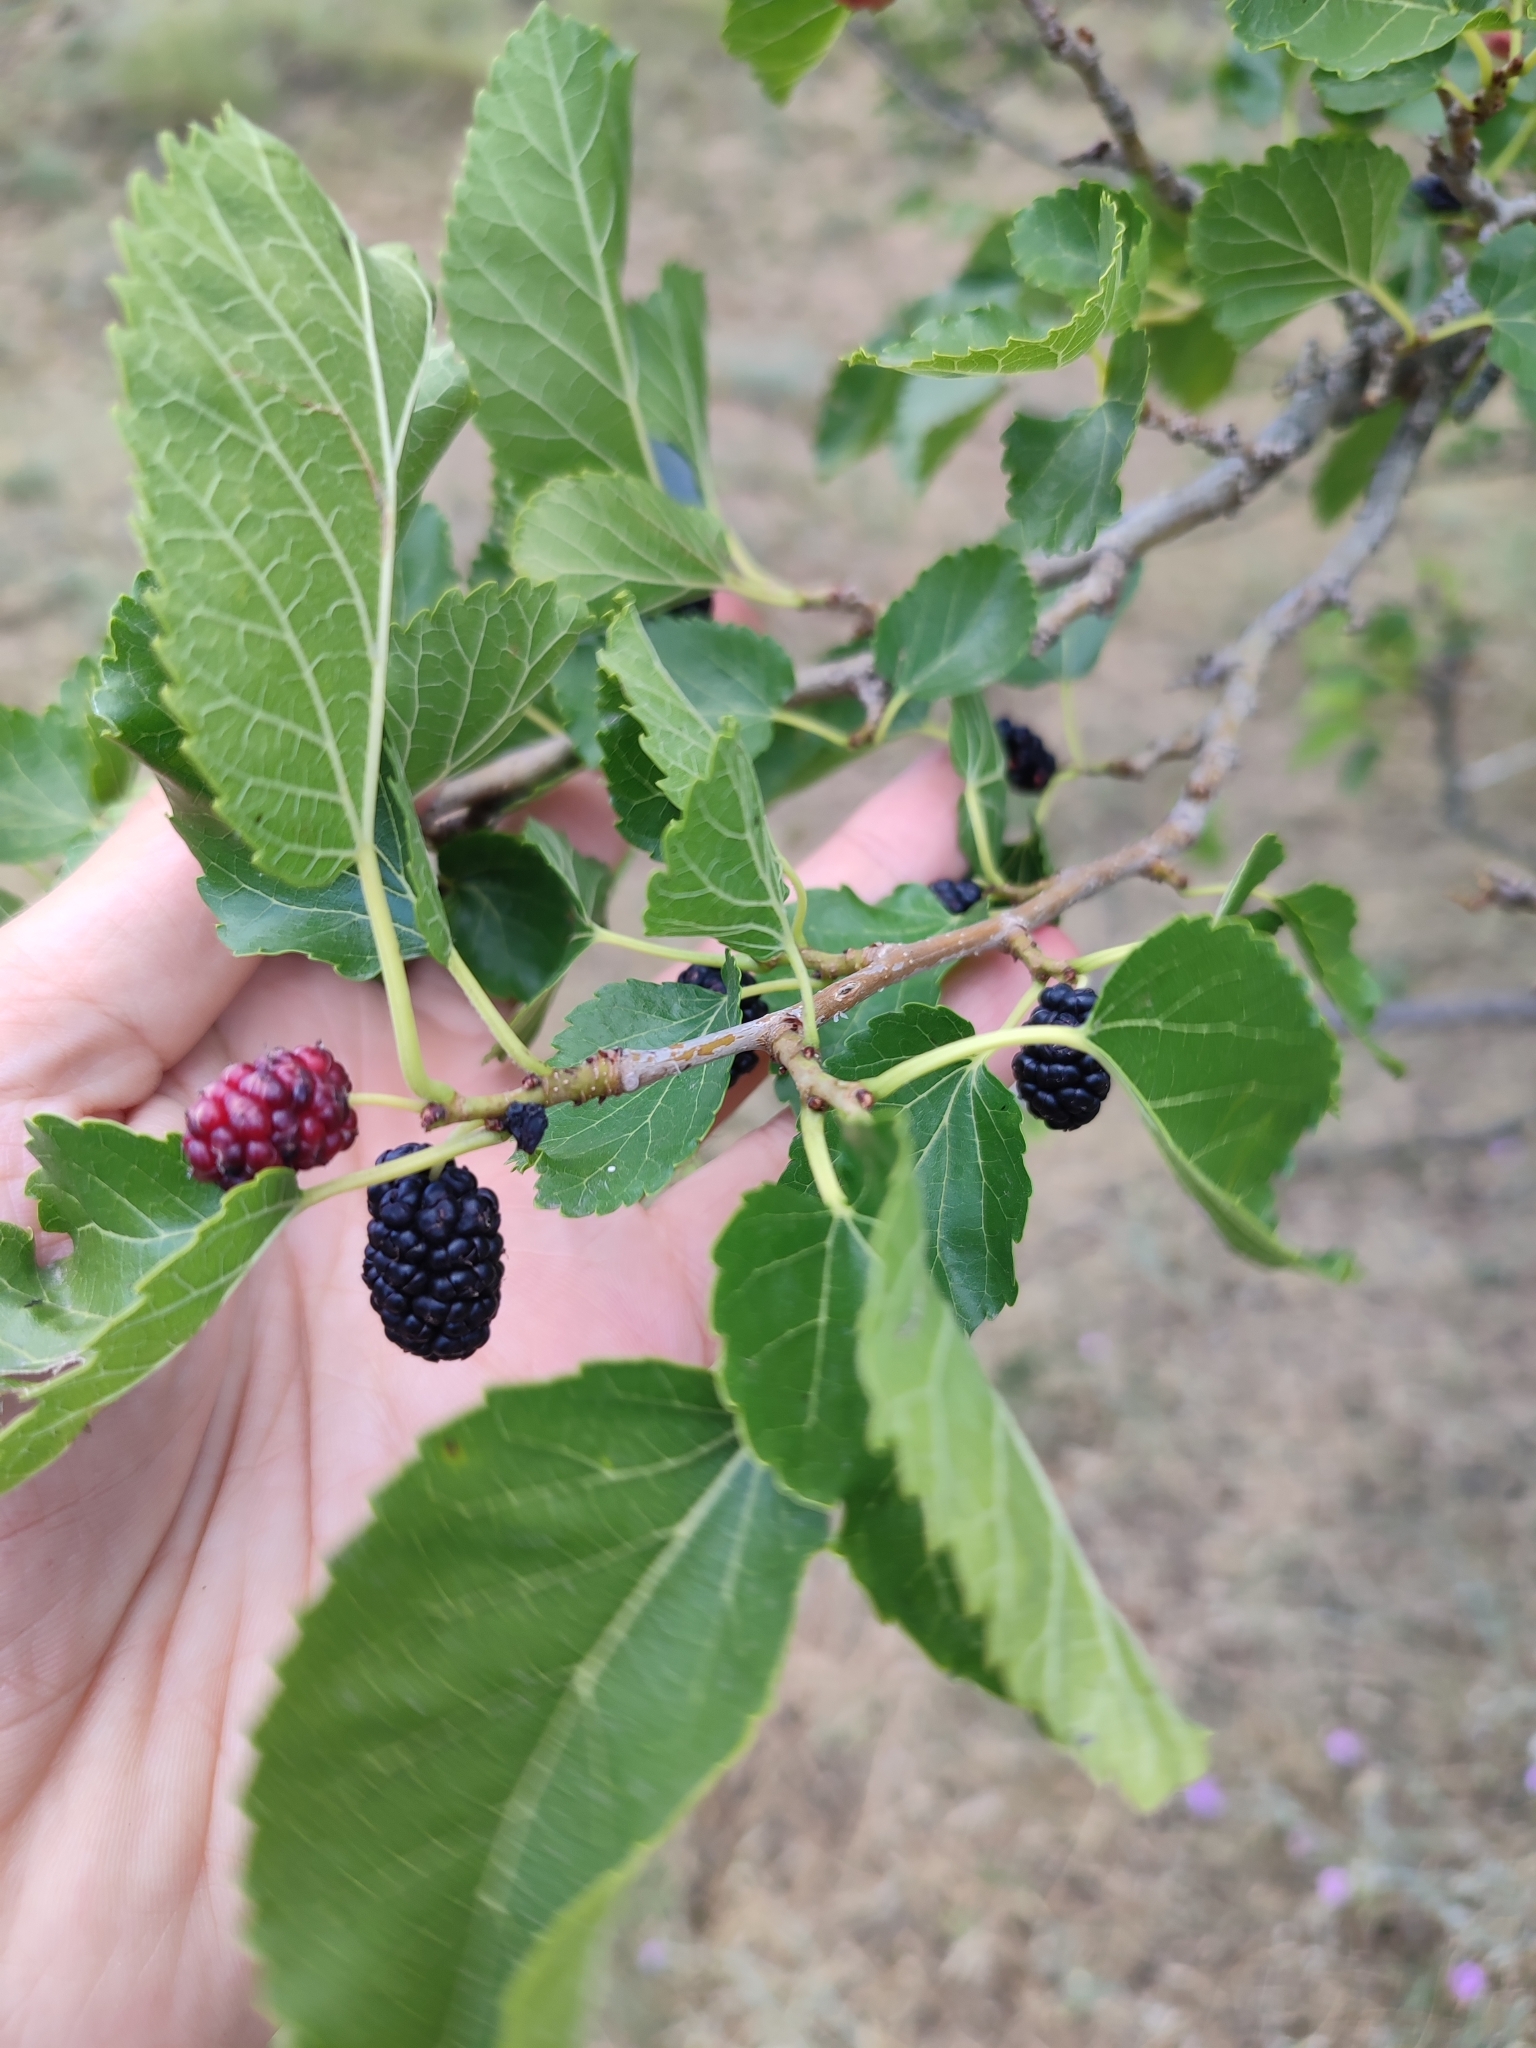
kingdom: Plantae
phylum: Tracheophyta
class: Magnoliopsida
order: Rosales
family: Moraceae
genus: Morus
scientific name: Morus alba
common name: White mulberry
